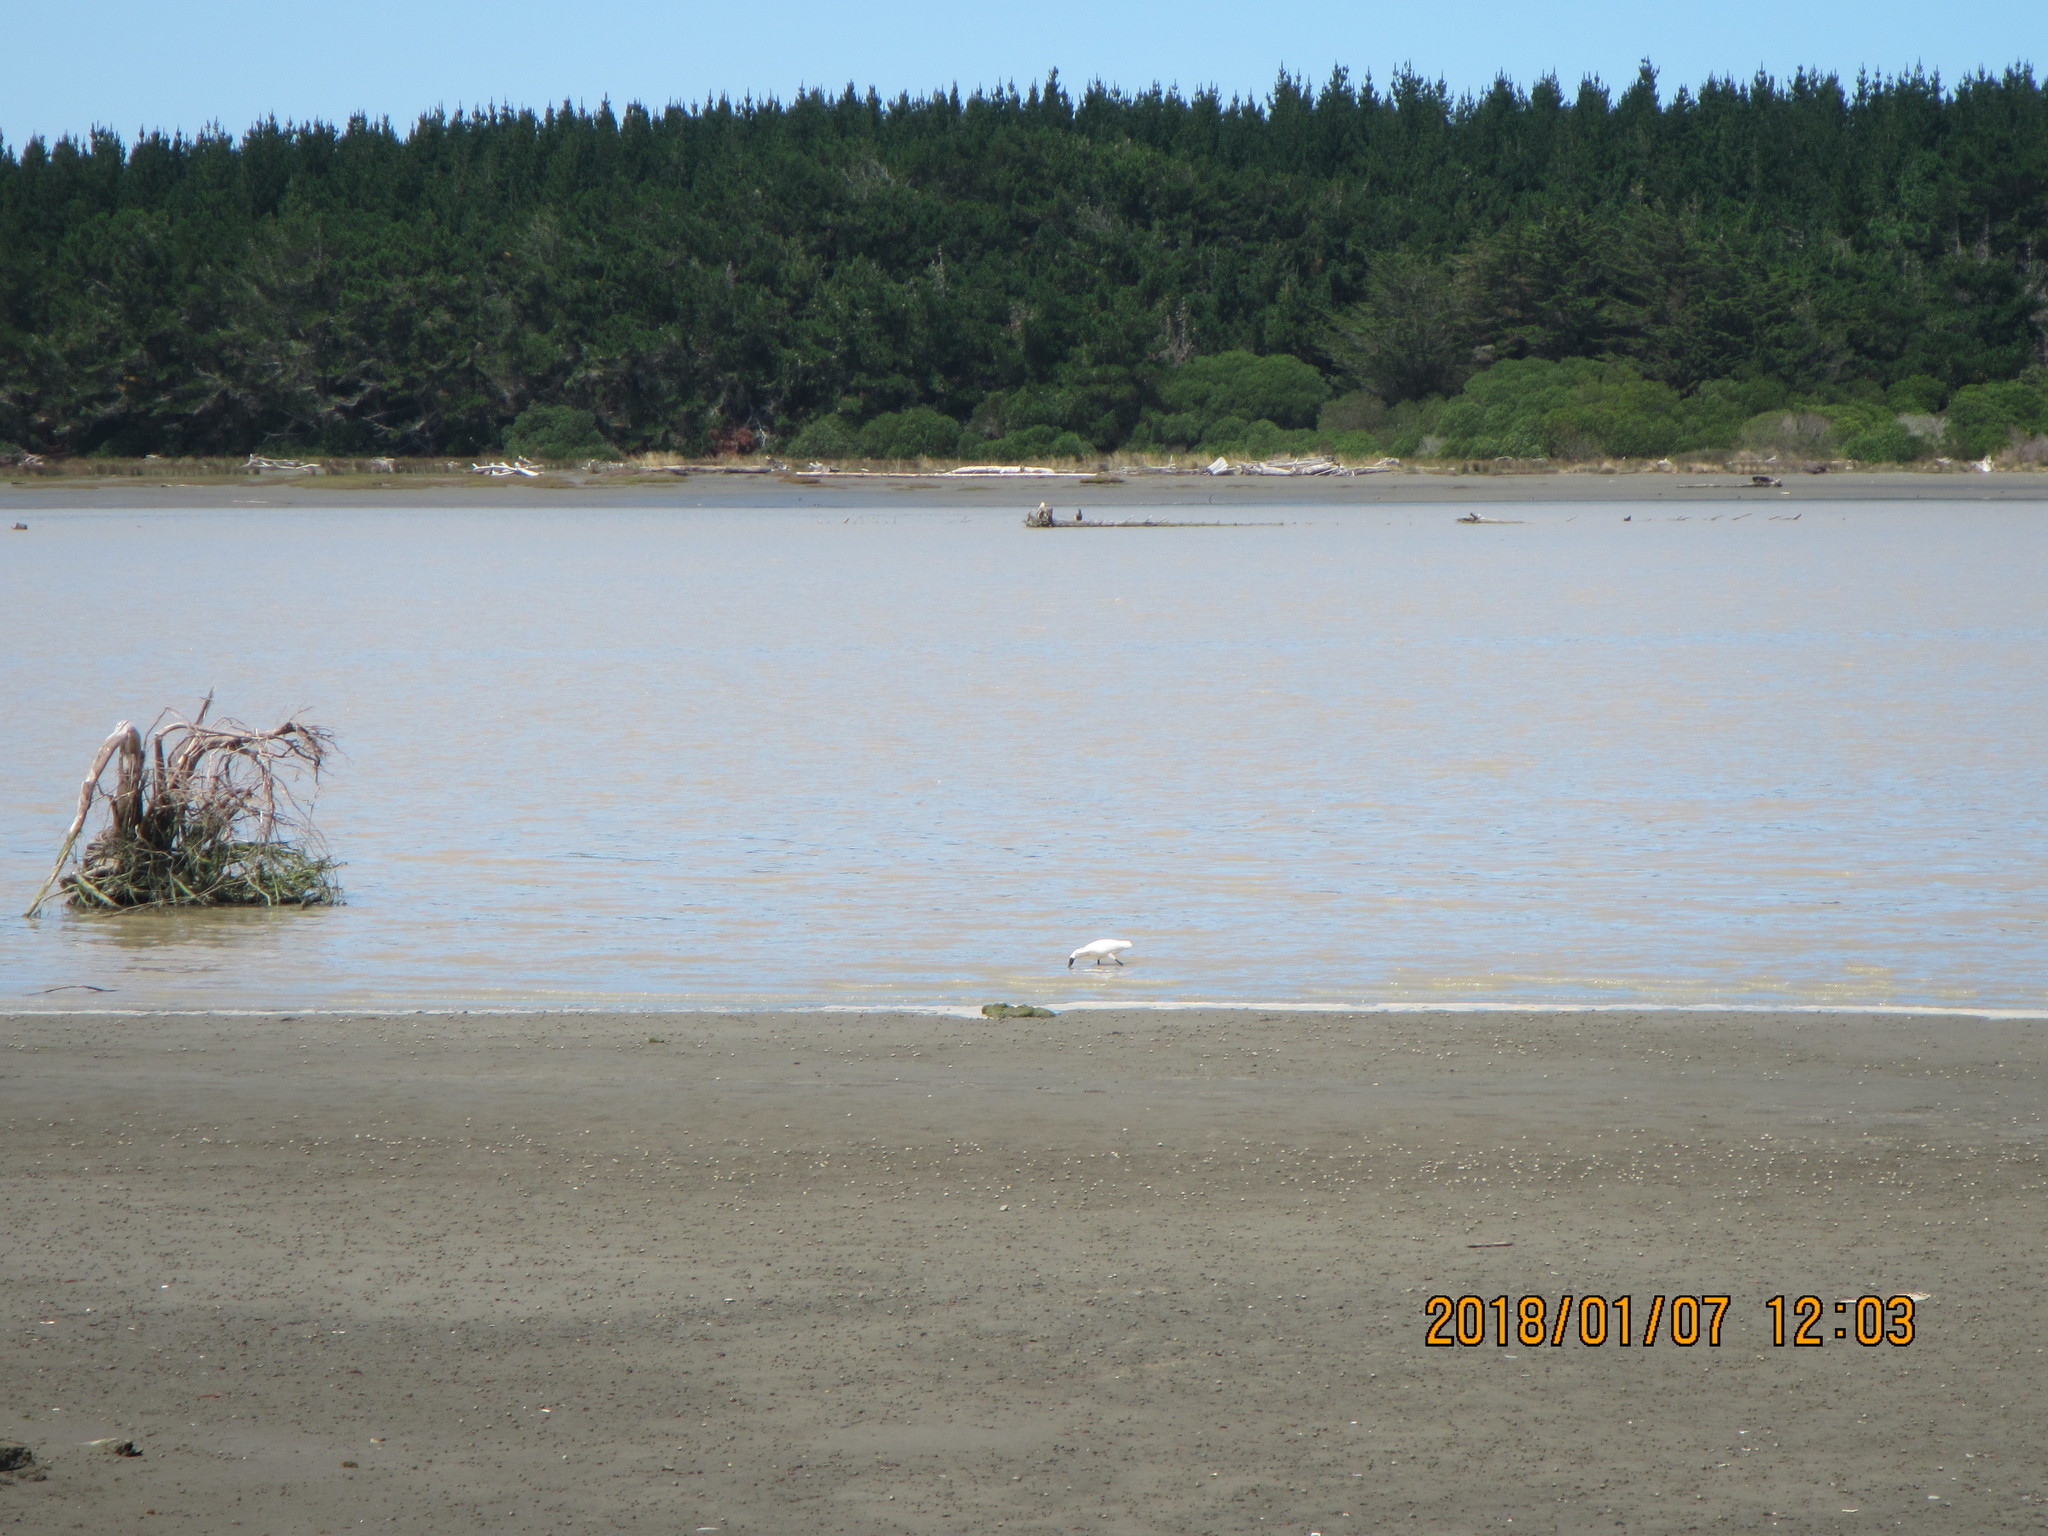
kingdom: Animalia
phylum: Chordata
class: Aves
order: Pelecaniformes
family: Threskiornithidae
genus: Platalea
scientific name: Platalea regia
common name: Royal spoonbill
